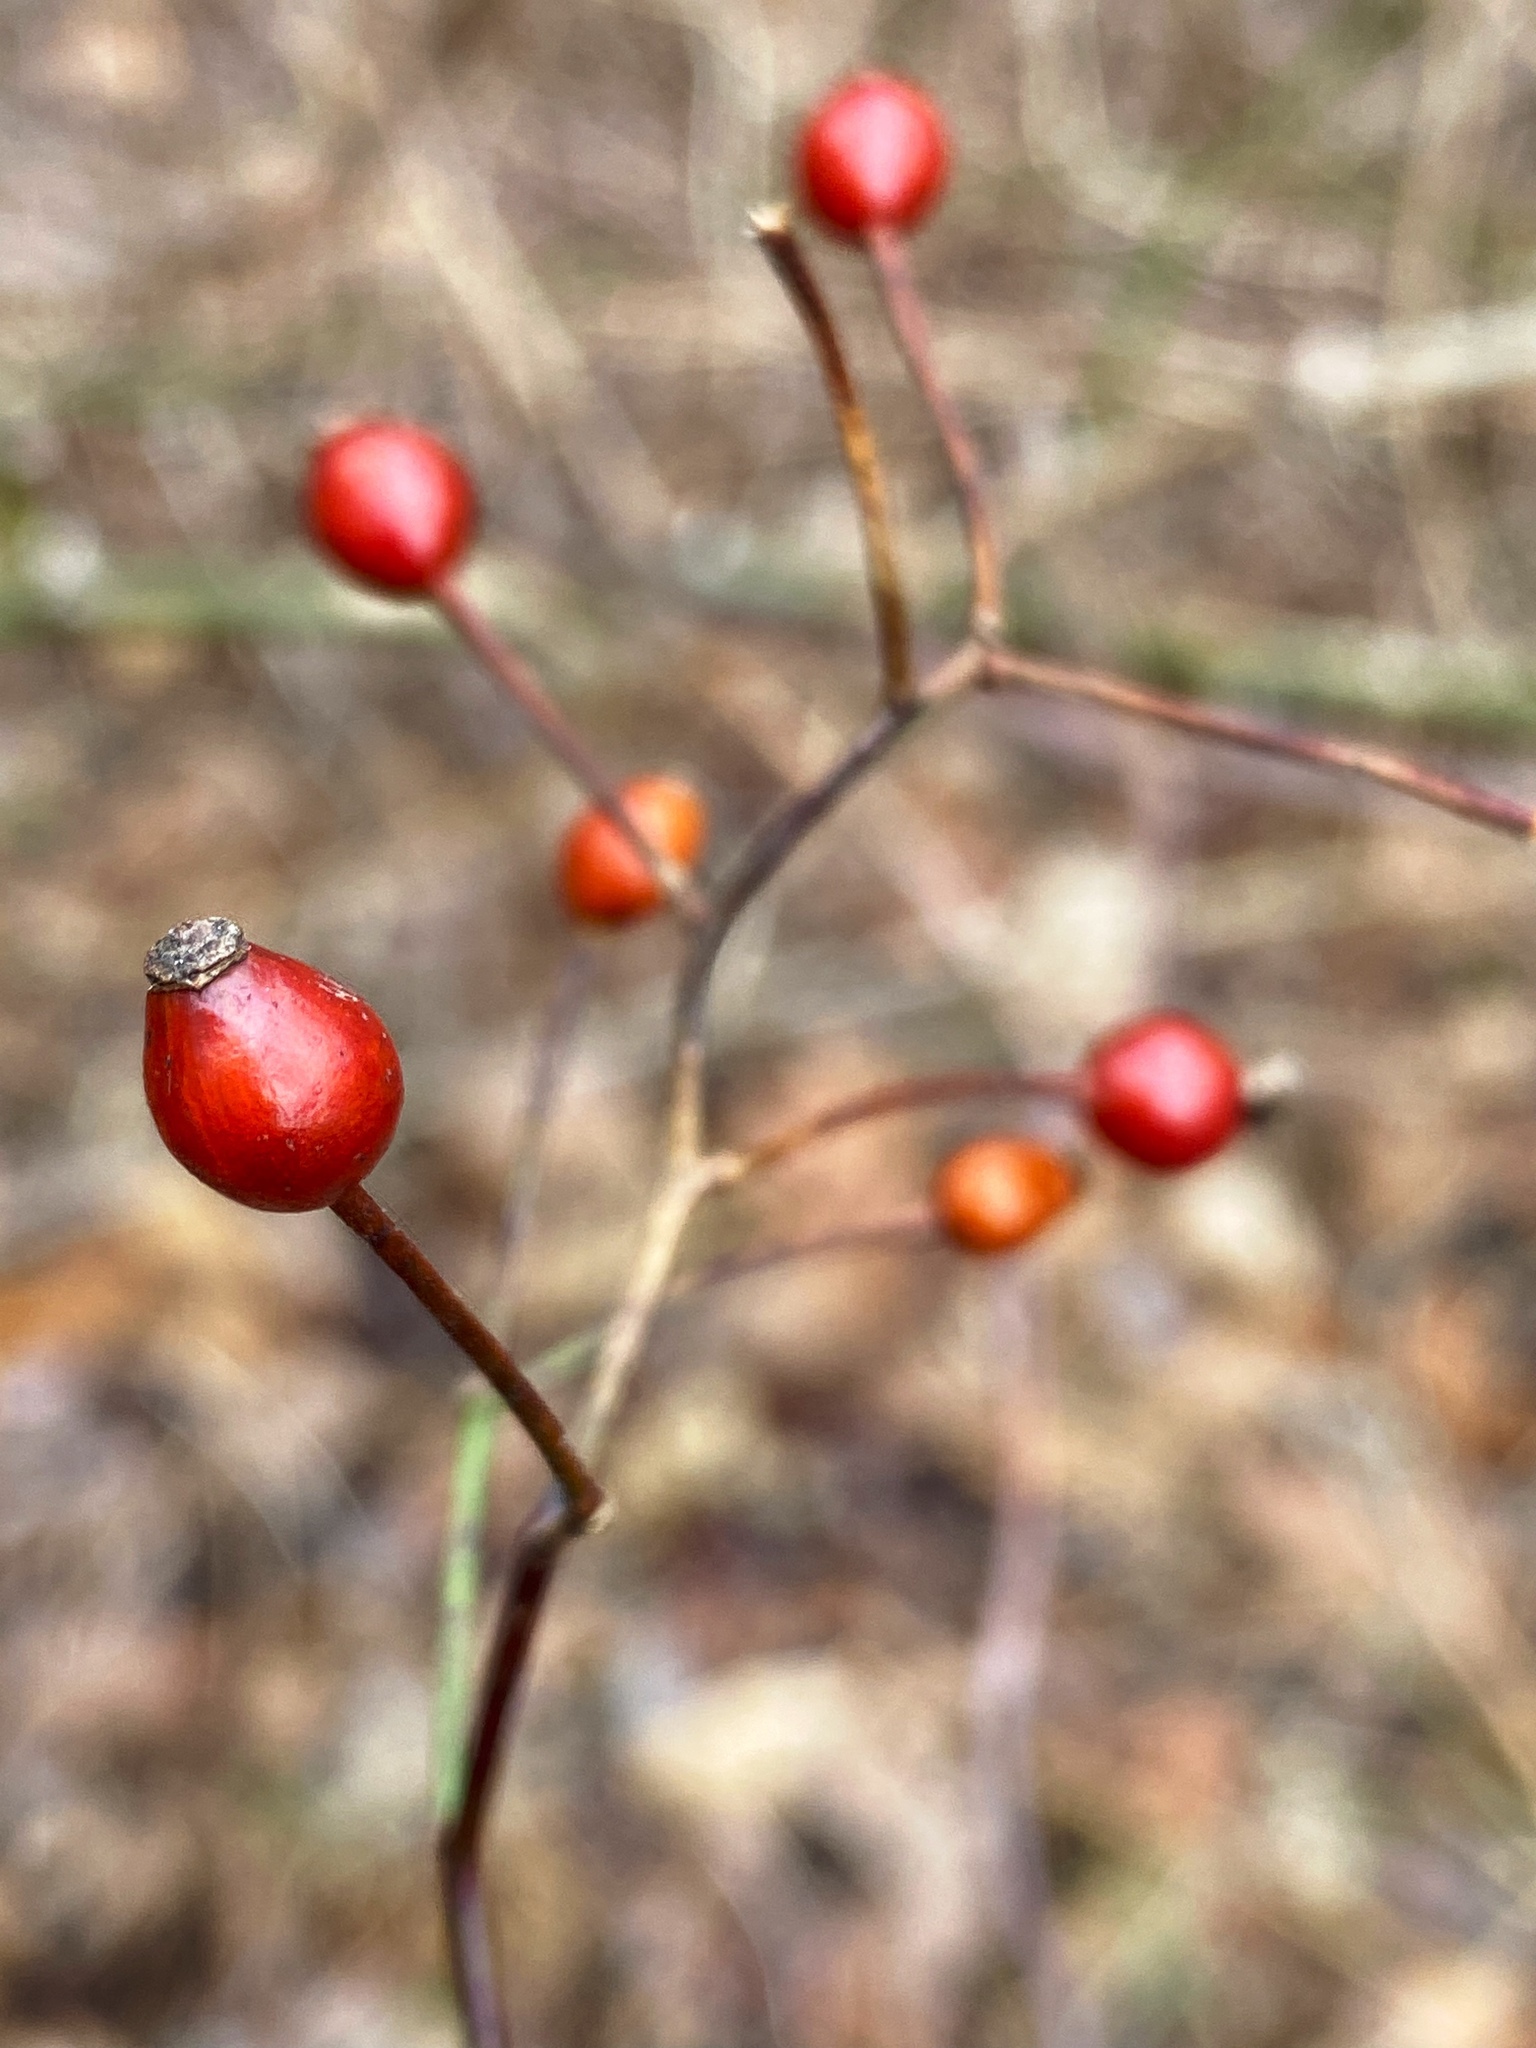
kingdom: Plantae
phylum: Tracheophyta
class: Magnoliopsida
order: Rosales
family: Rosaceae
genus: Rosa
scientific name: Rosa multiflora
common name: Multiflora rose
